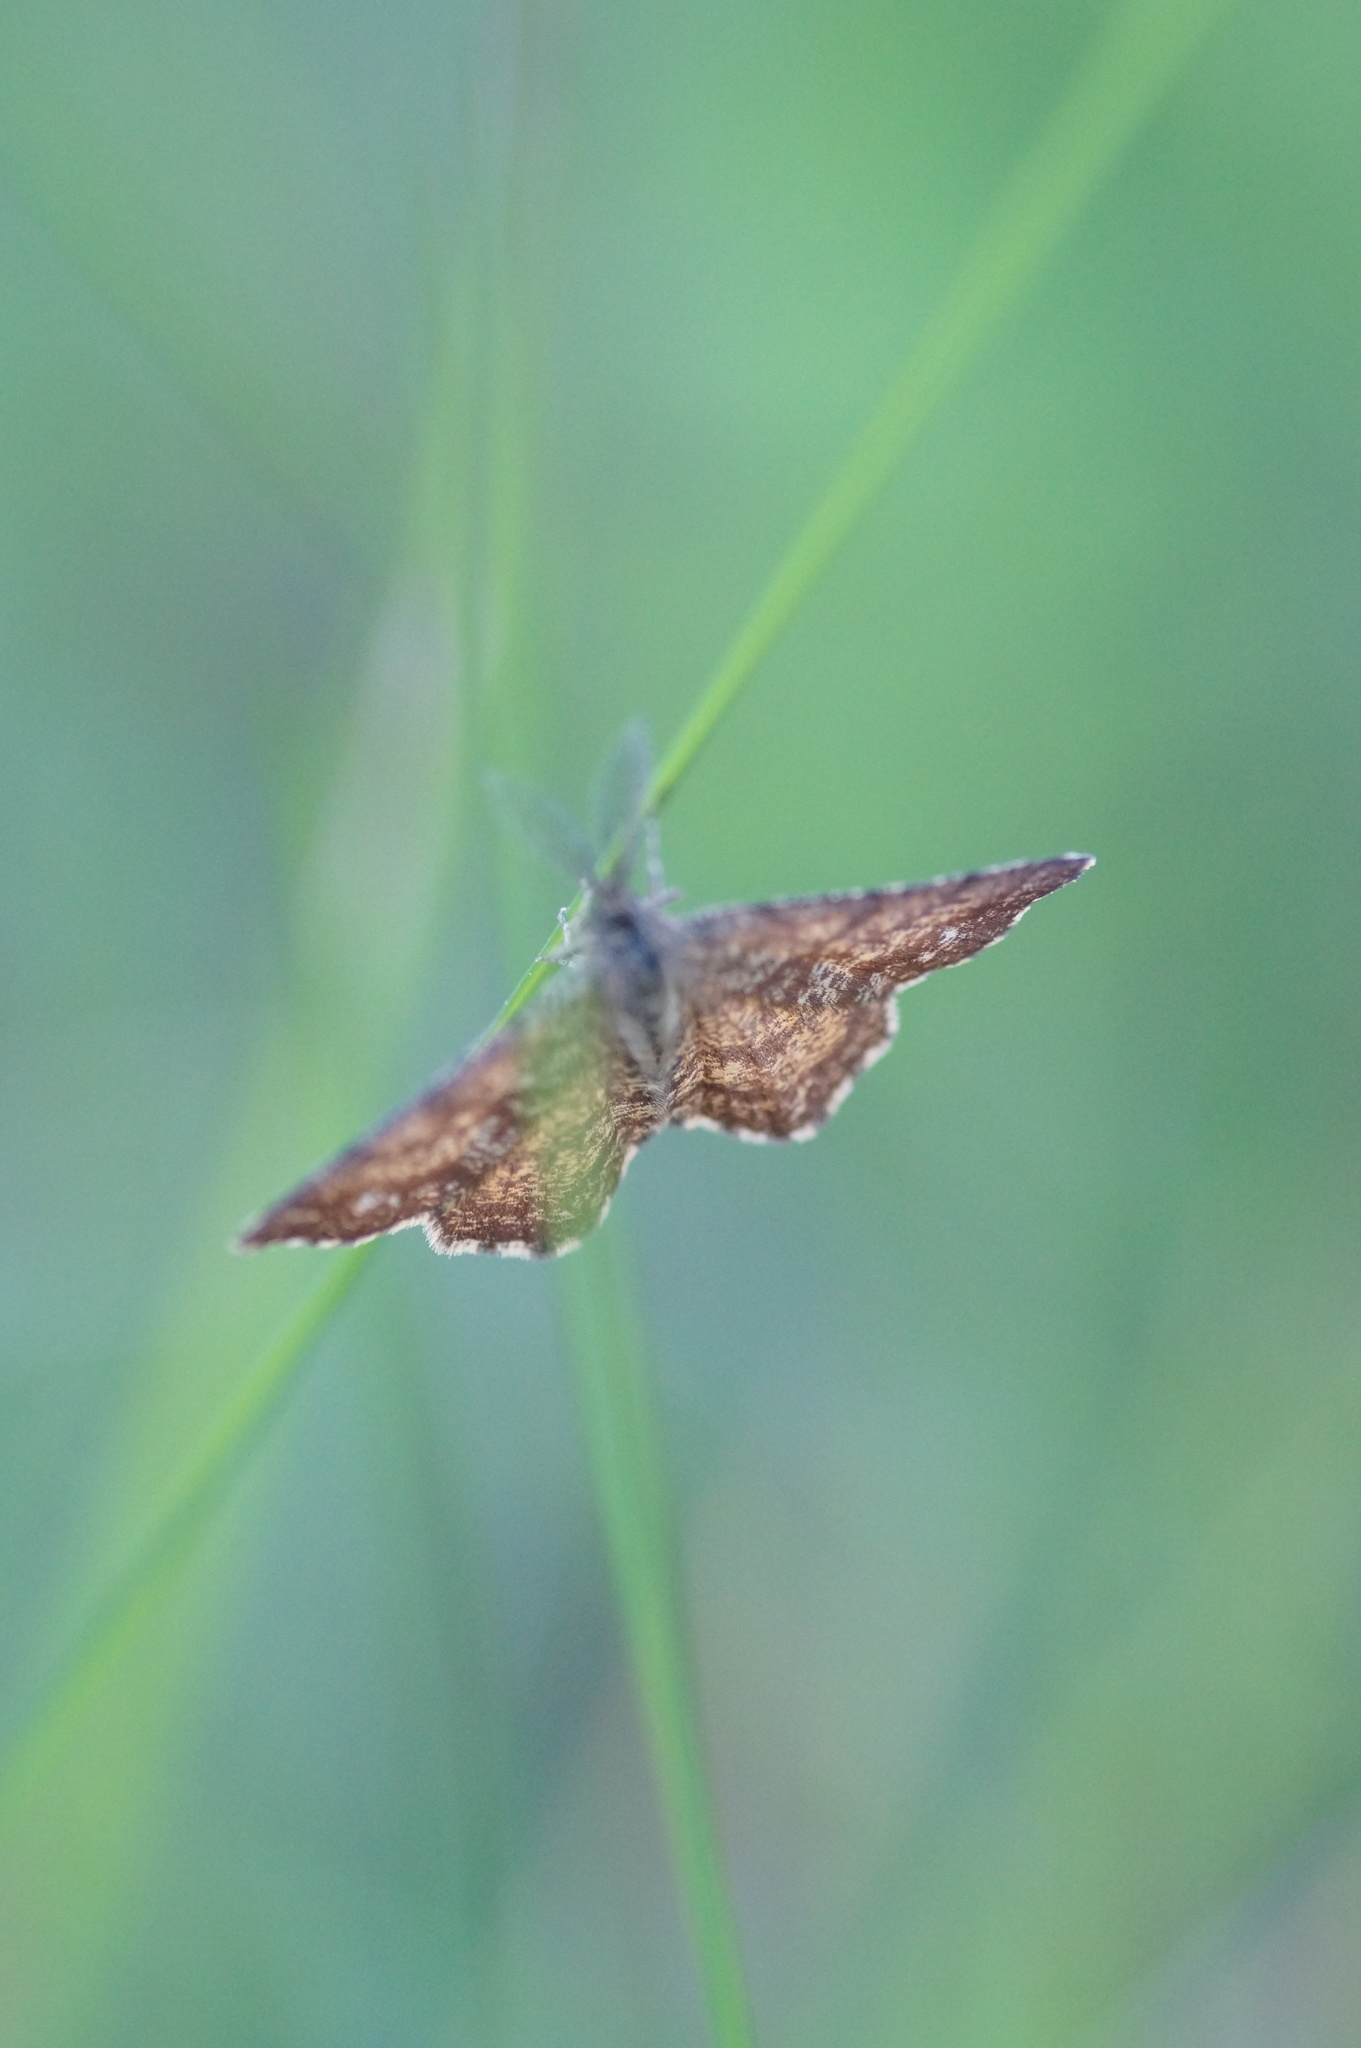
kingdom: Animalia
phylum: Arthropoda
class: Insecta
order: Lepidoptera
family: Geometridae
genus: Ematurga
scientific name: Ematurga atomaria
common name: Common heath
